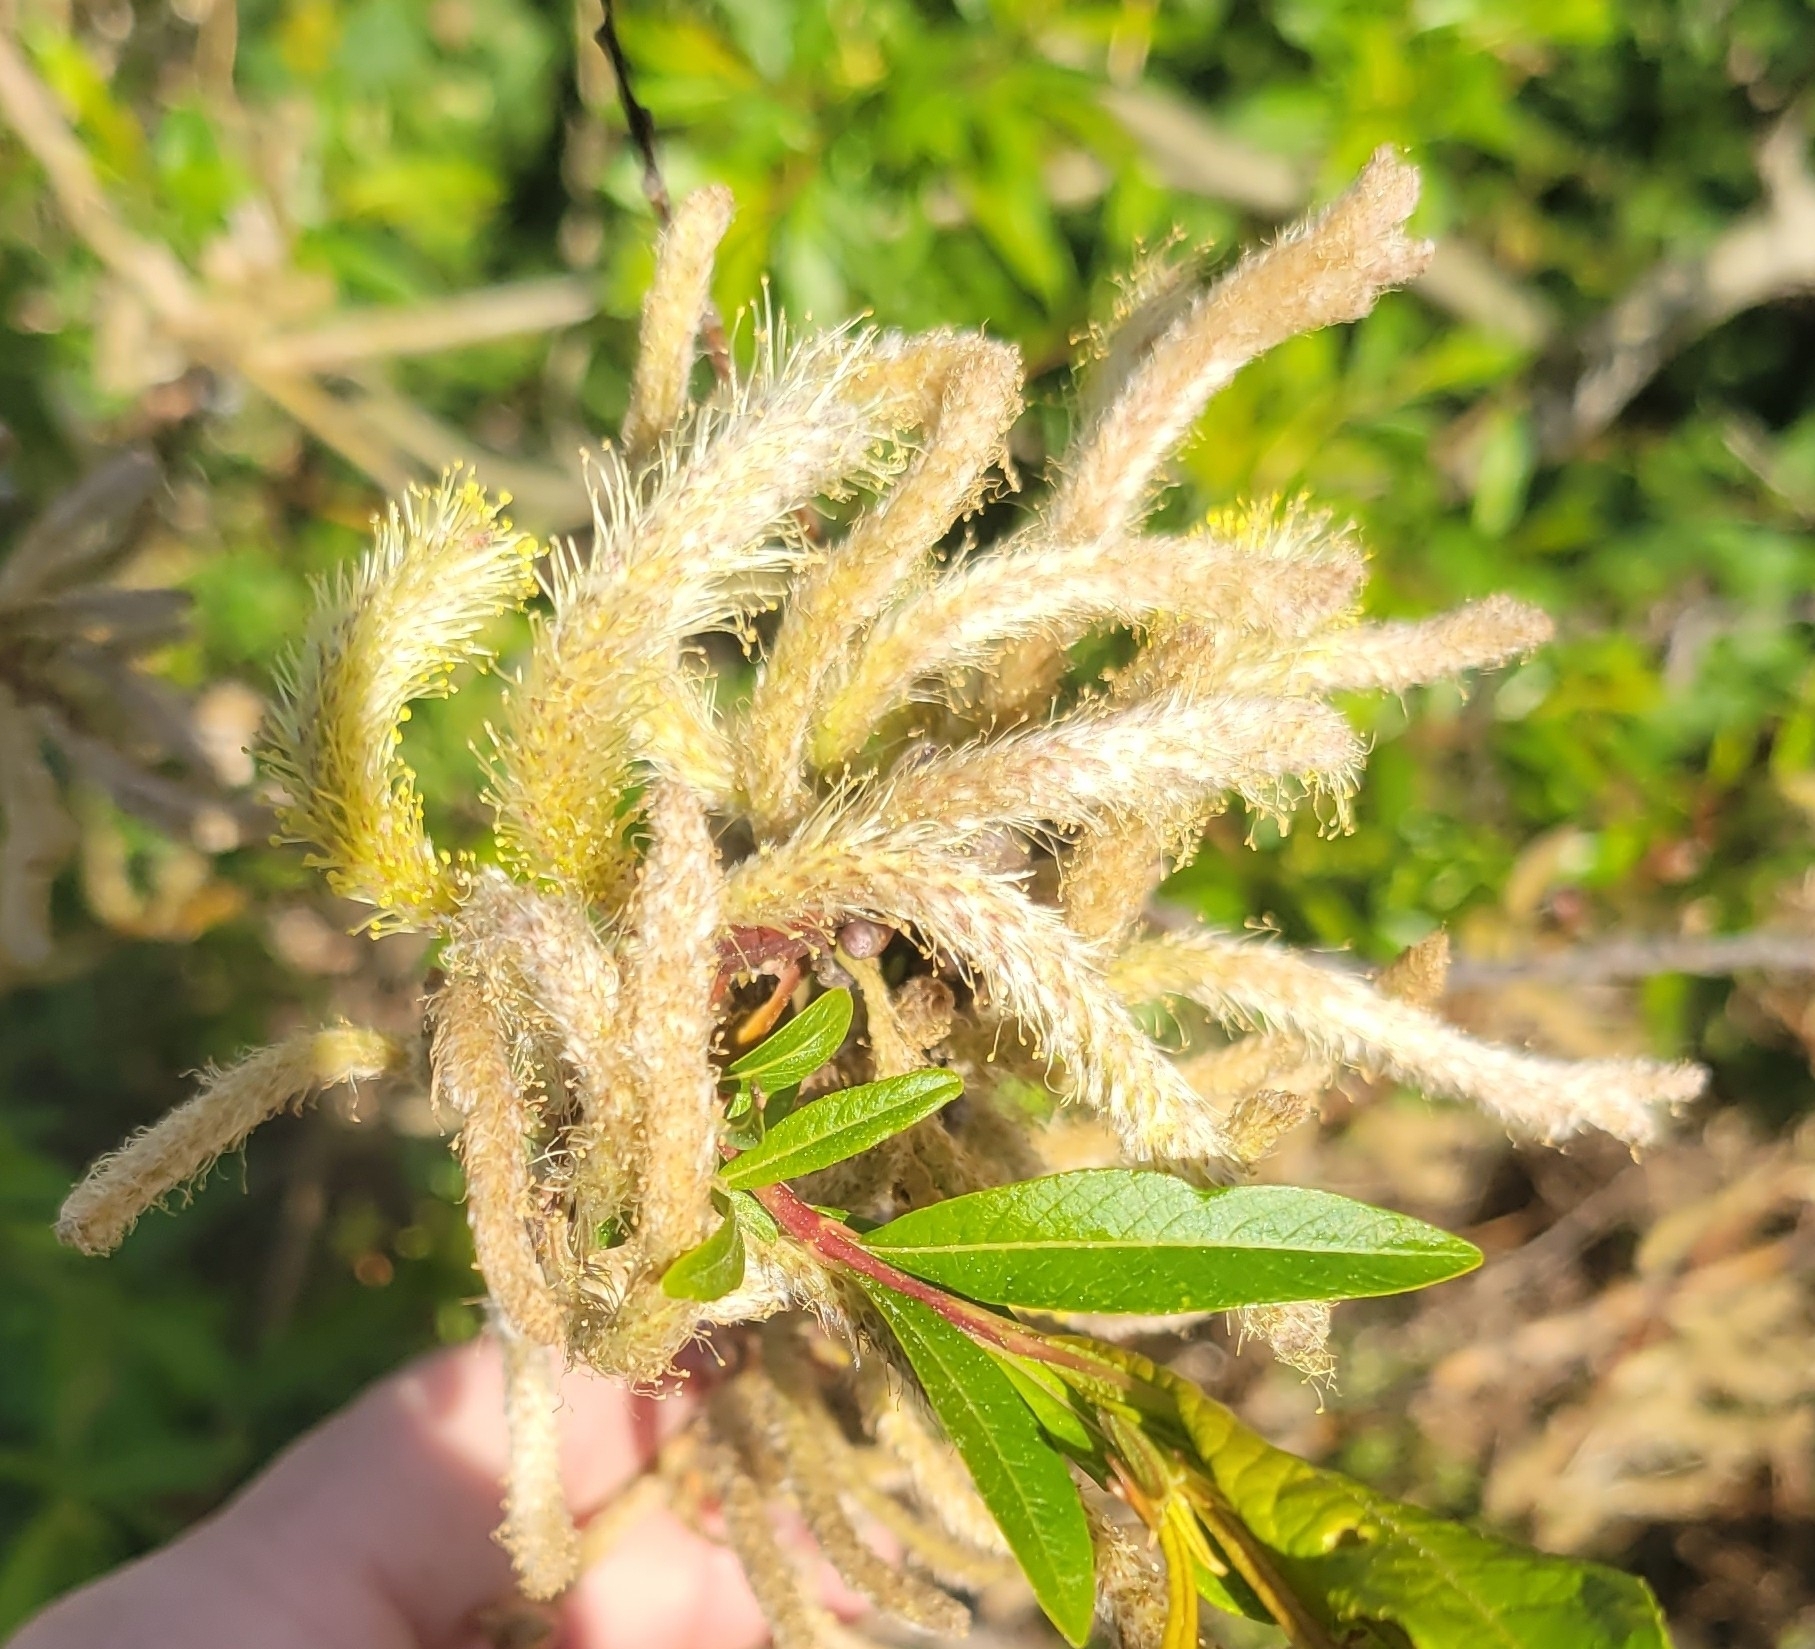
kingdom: Plantae
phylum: Tracheophyta
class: Magnoliopsida
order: Malpighiales
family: Salicaceae
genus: Salix
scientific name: Salix alba
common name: White willow
